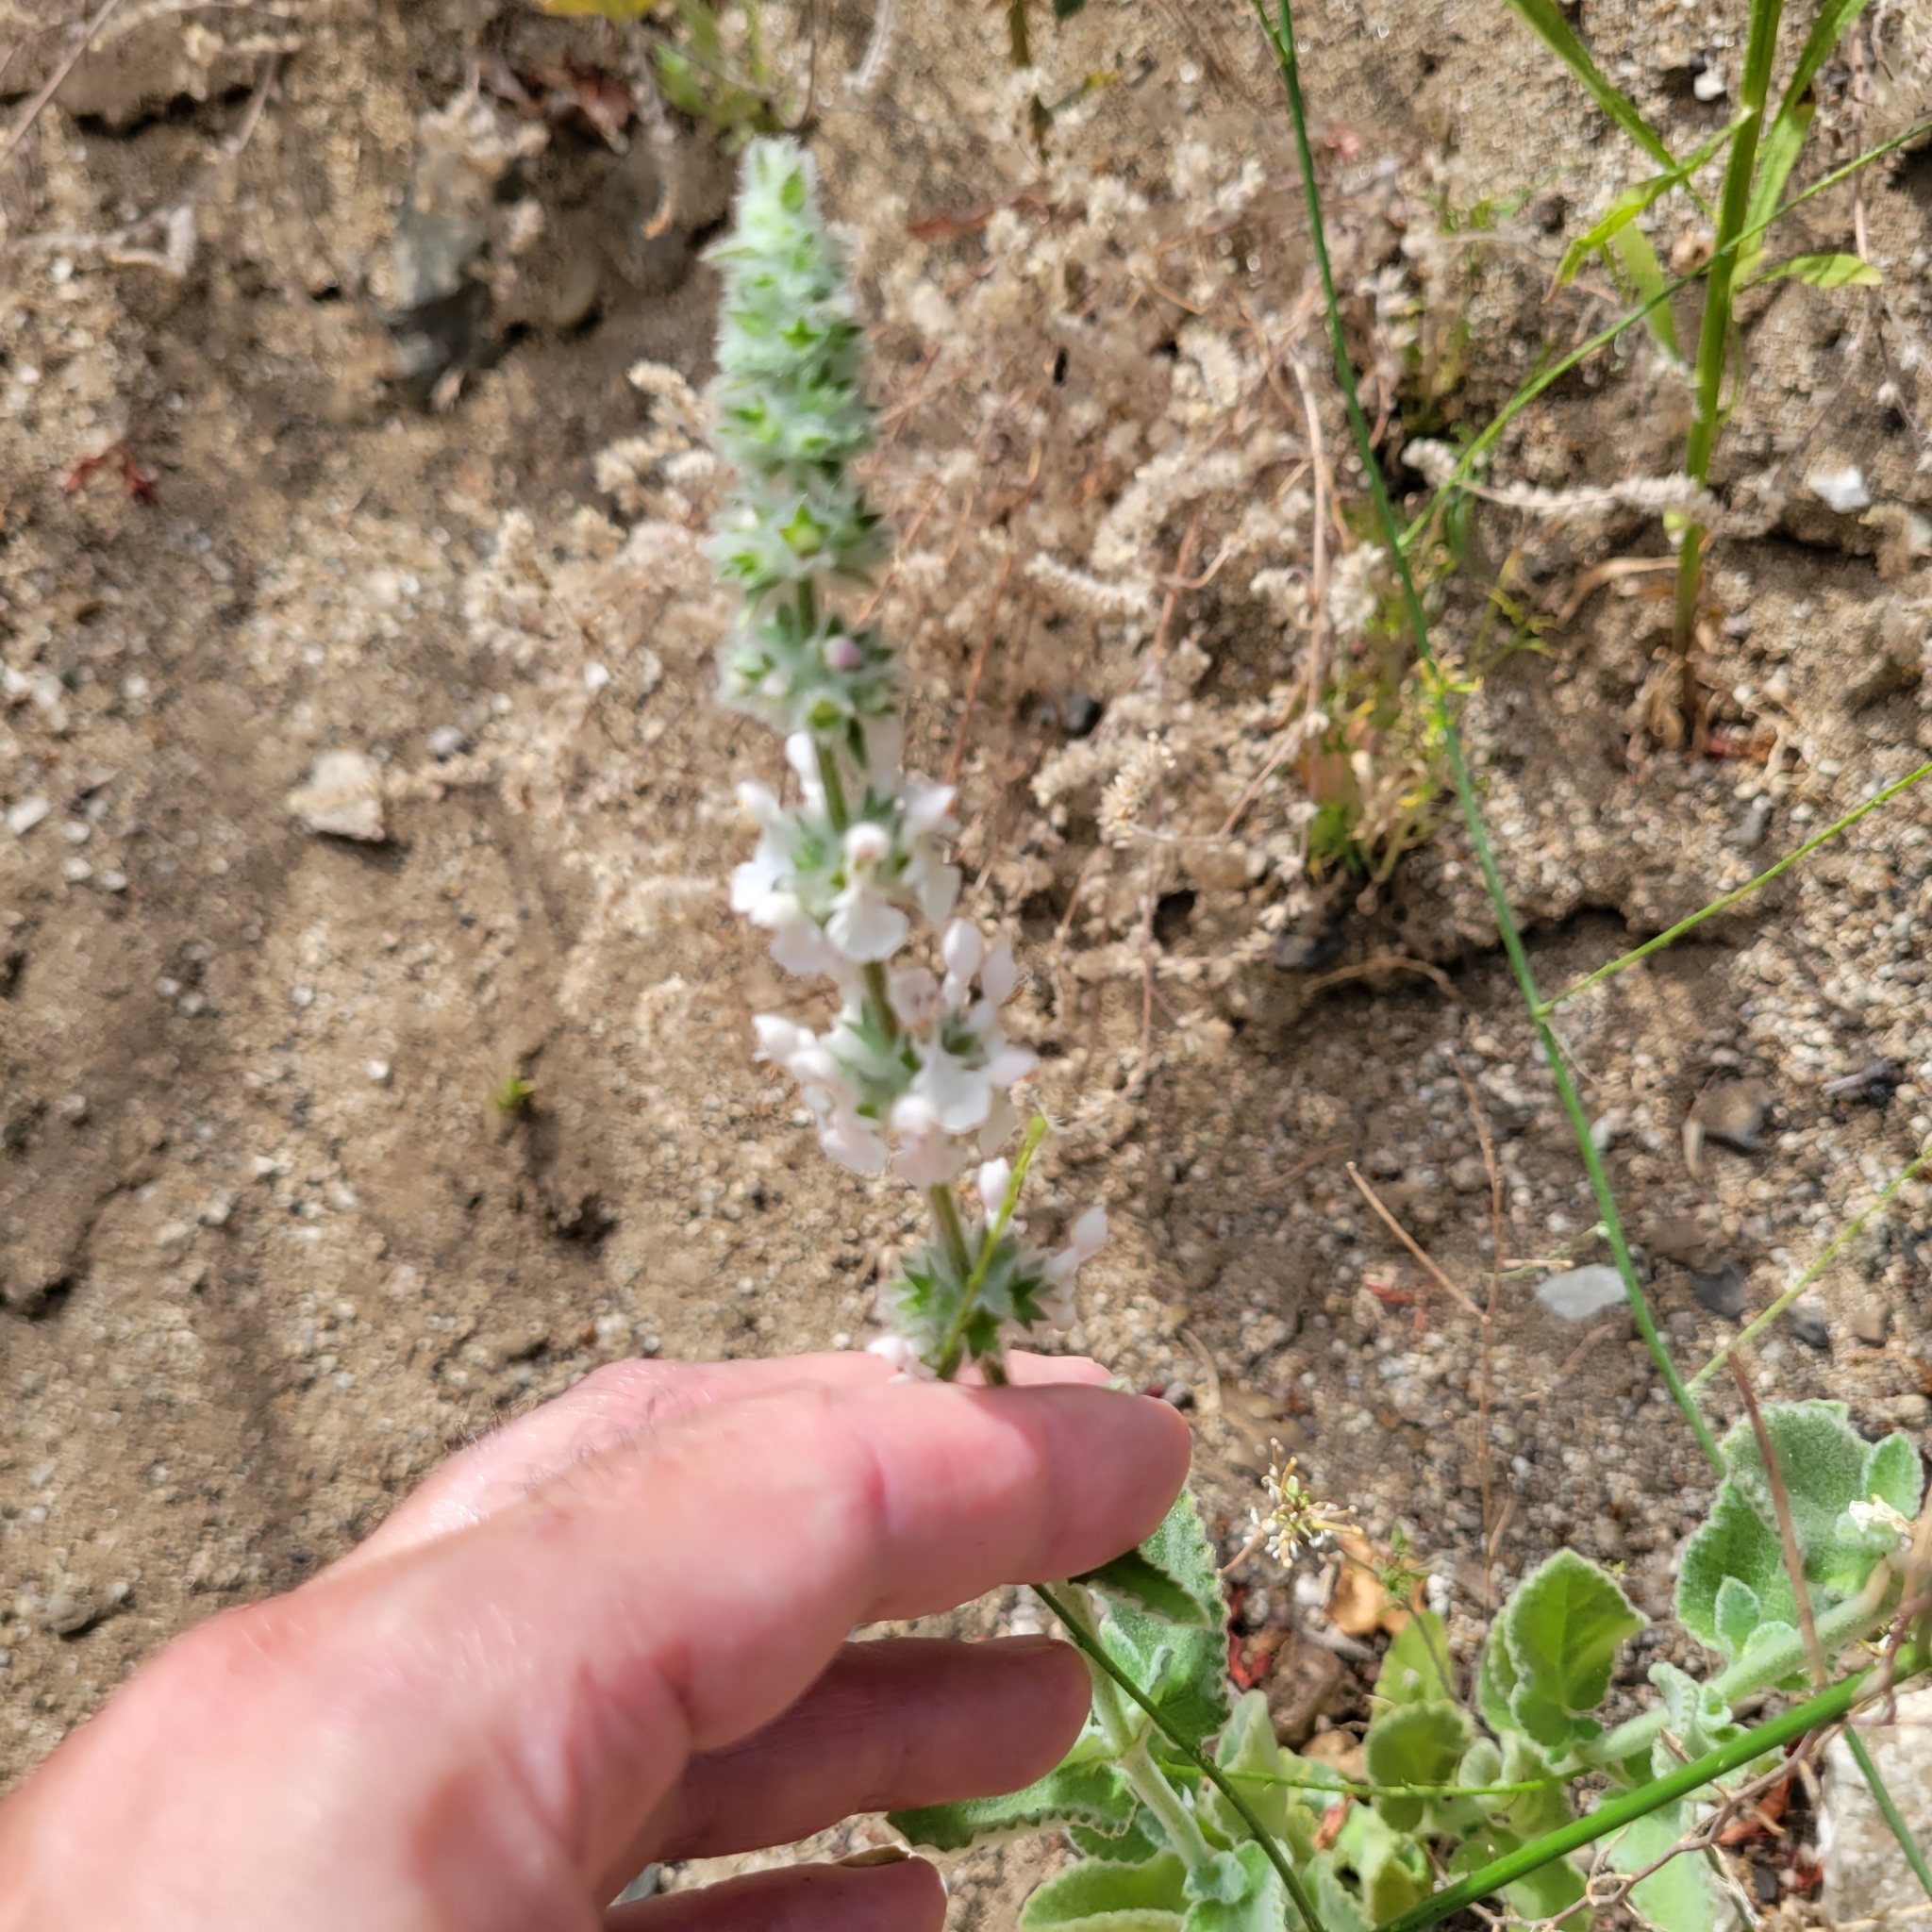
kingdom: Plantae
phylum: Tracheophyta
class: Magnoliopsida
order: Lamiales
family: Lamiaceae
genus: Stachys
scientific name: Stachys albens
